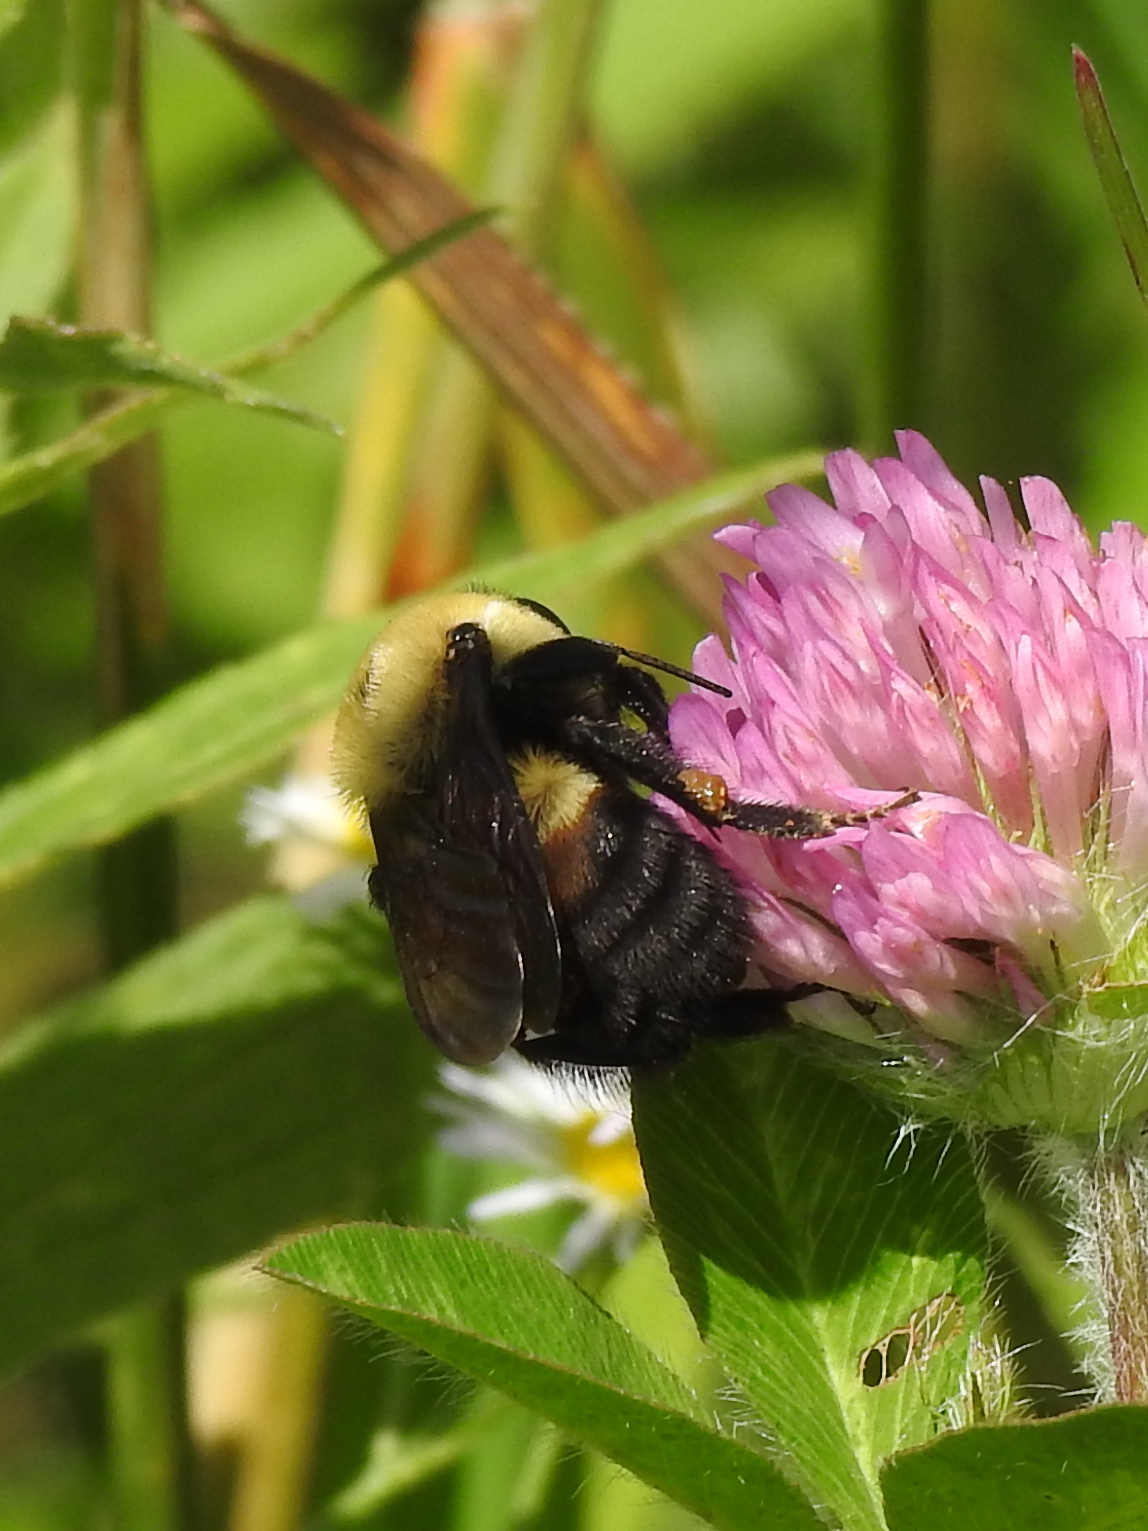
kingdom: Animalia
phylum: Arthropoda
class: Insecta
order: Hymenoptera
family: Apidae
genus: Bombus
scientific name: Bombus griseocollis
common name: Brown-belted bumble bee
